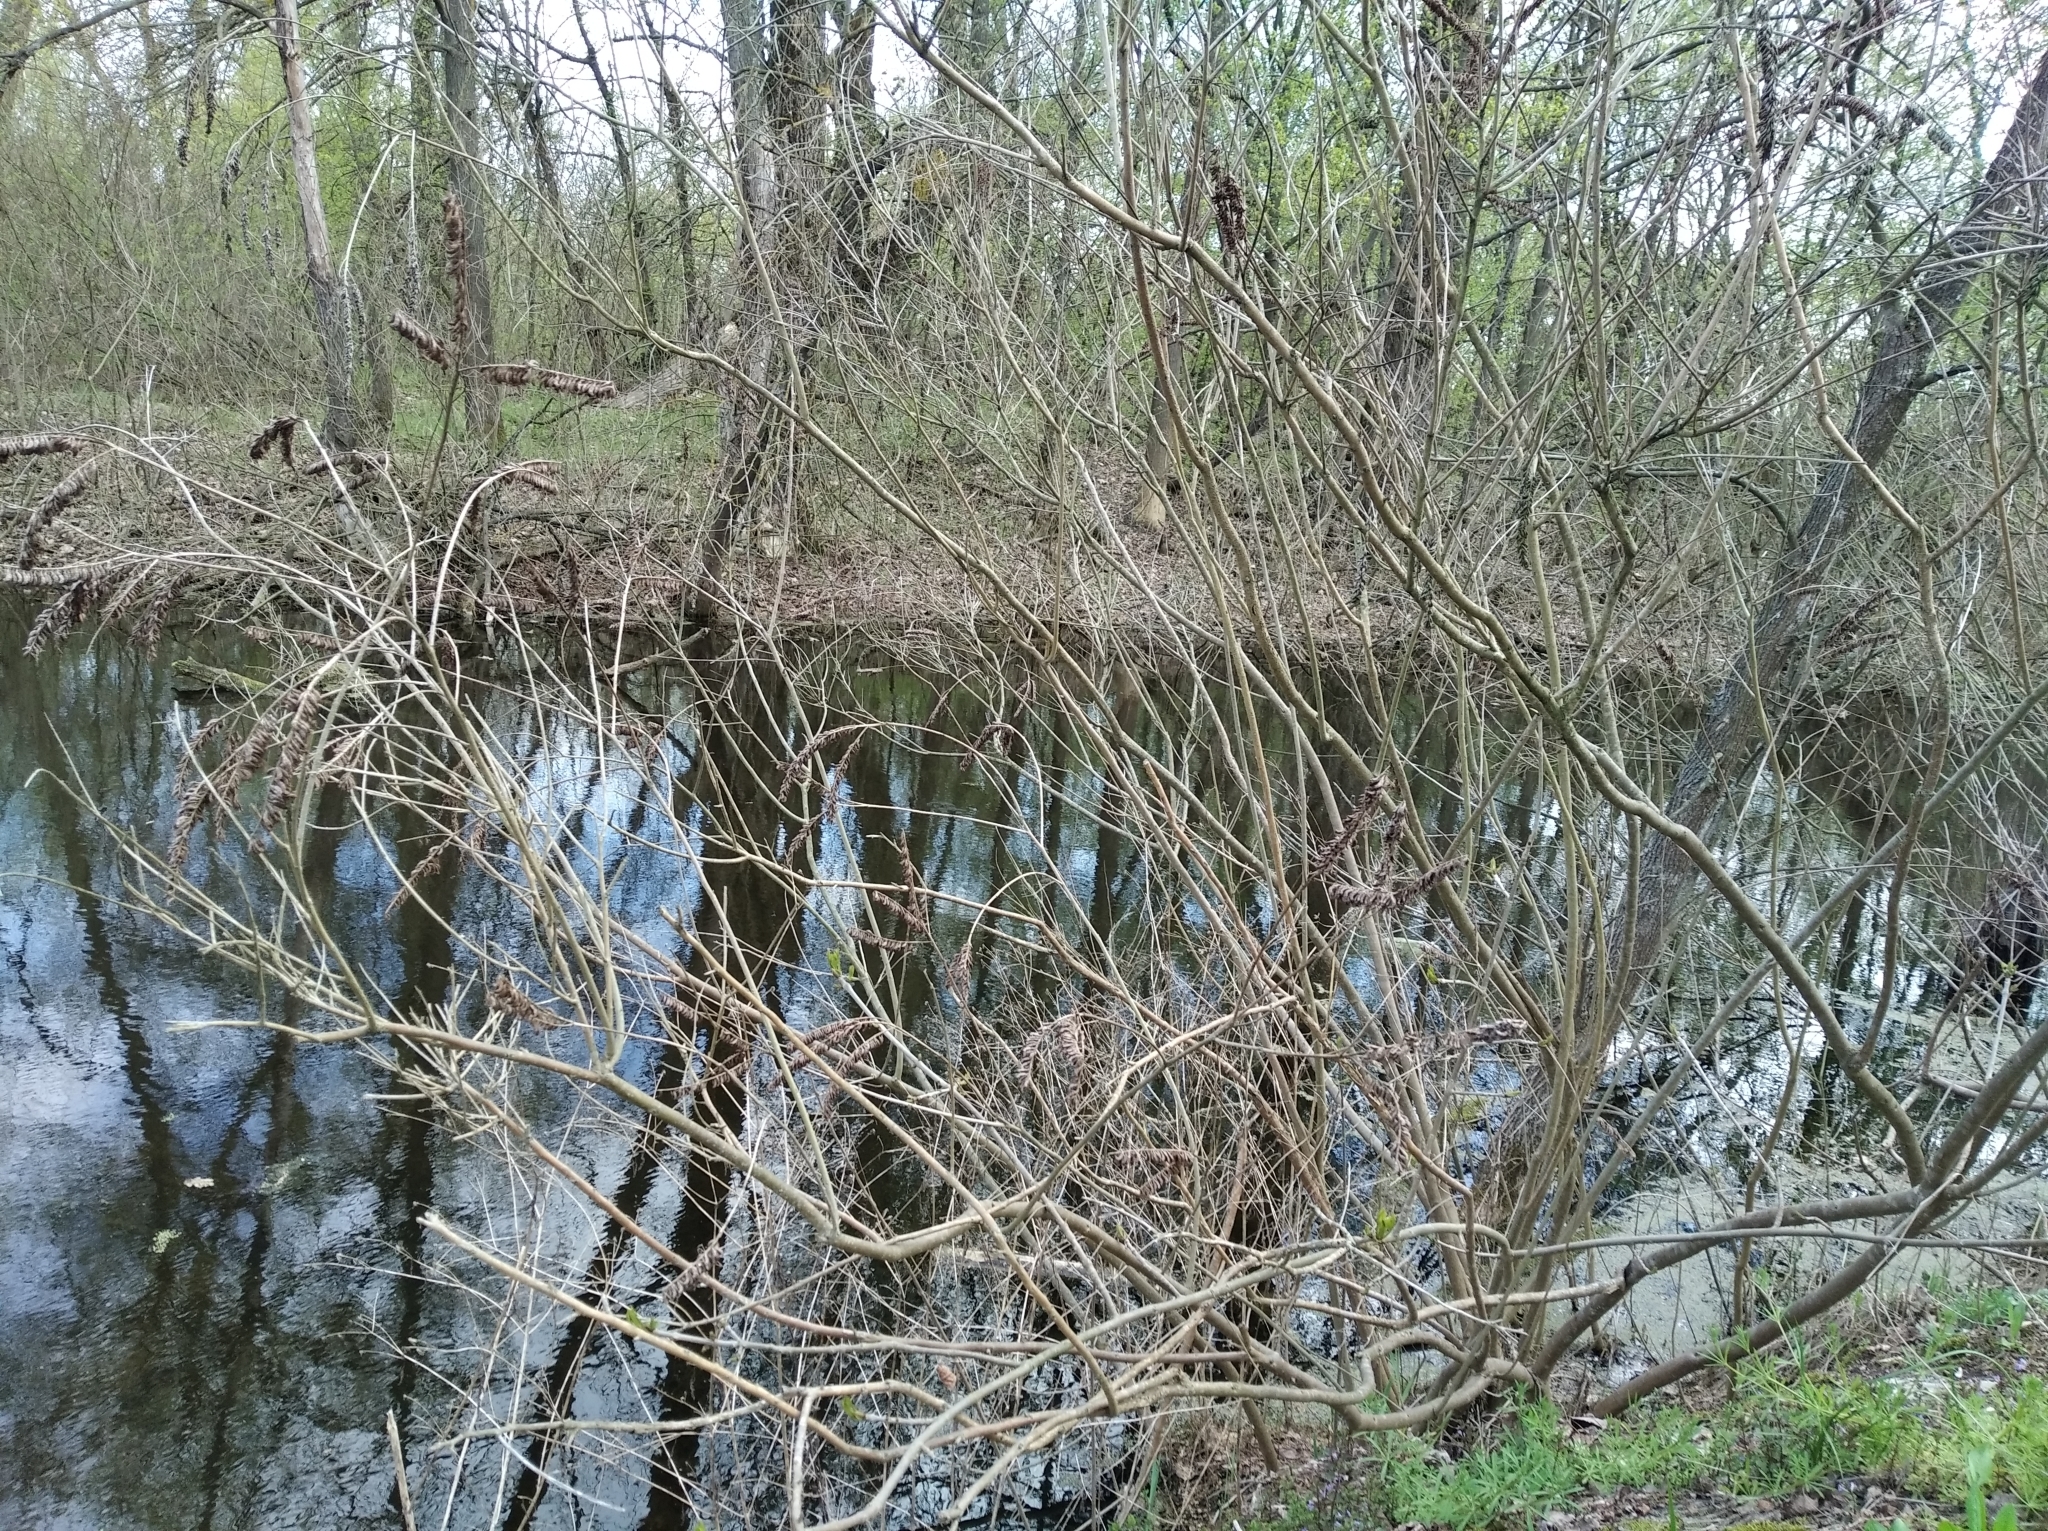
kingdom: Plantae
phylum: Tracheophyta
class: Magnoliopsida
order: Fabales
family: Fabaceae
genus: Amorpha
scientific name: Amorpha fruticosa
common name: False indigo
